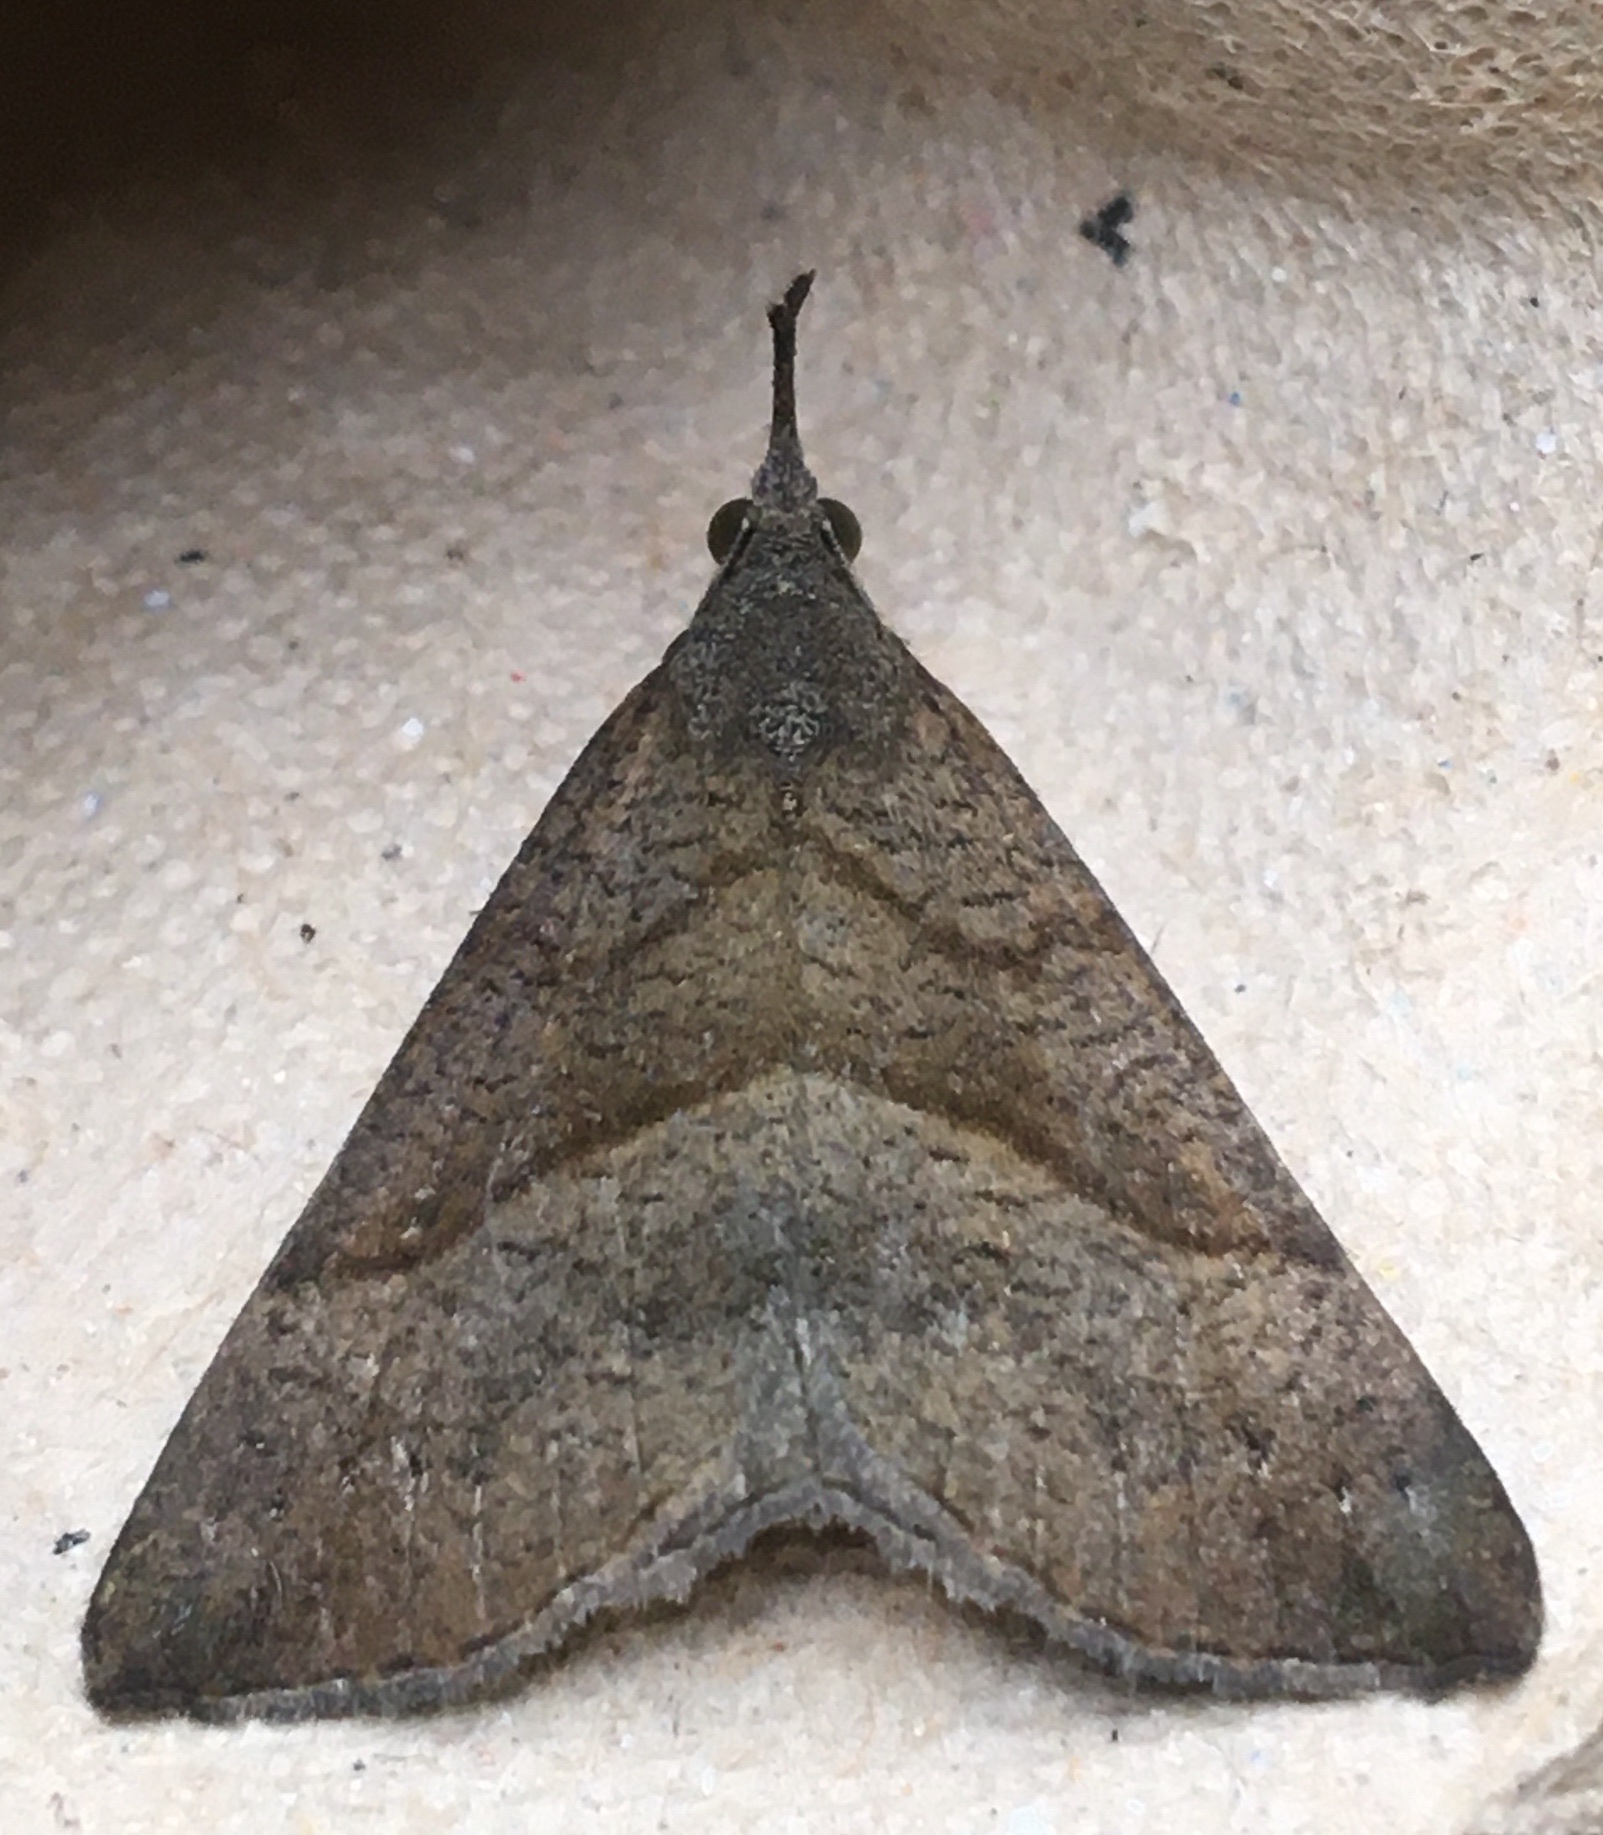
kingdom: Animalia
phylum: Arthropoda
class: Insecta
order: Lepidoptera
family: Erebidae
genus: Hypena
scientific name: Hypena proboscidalis
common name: Snout
